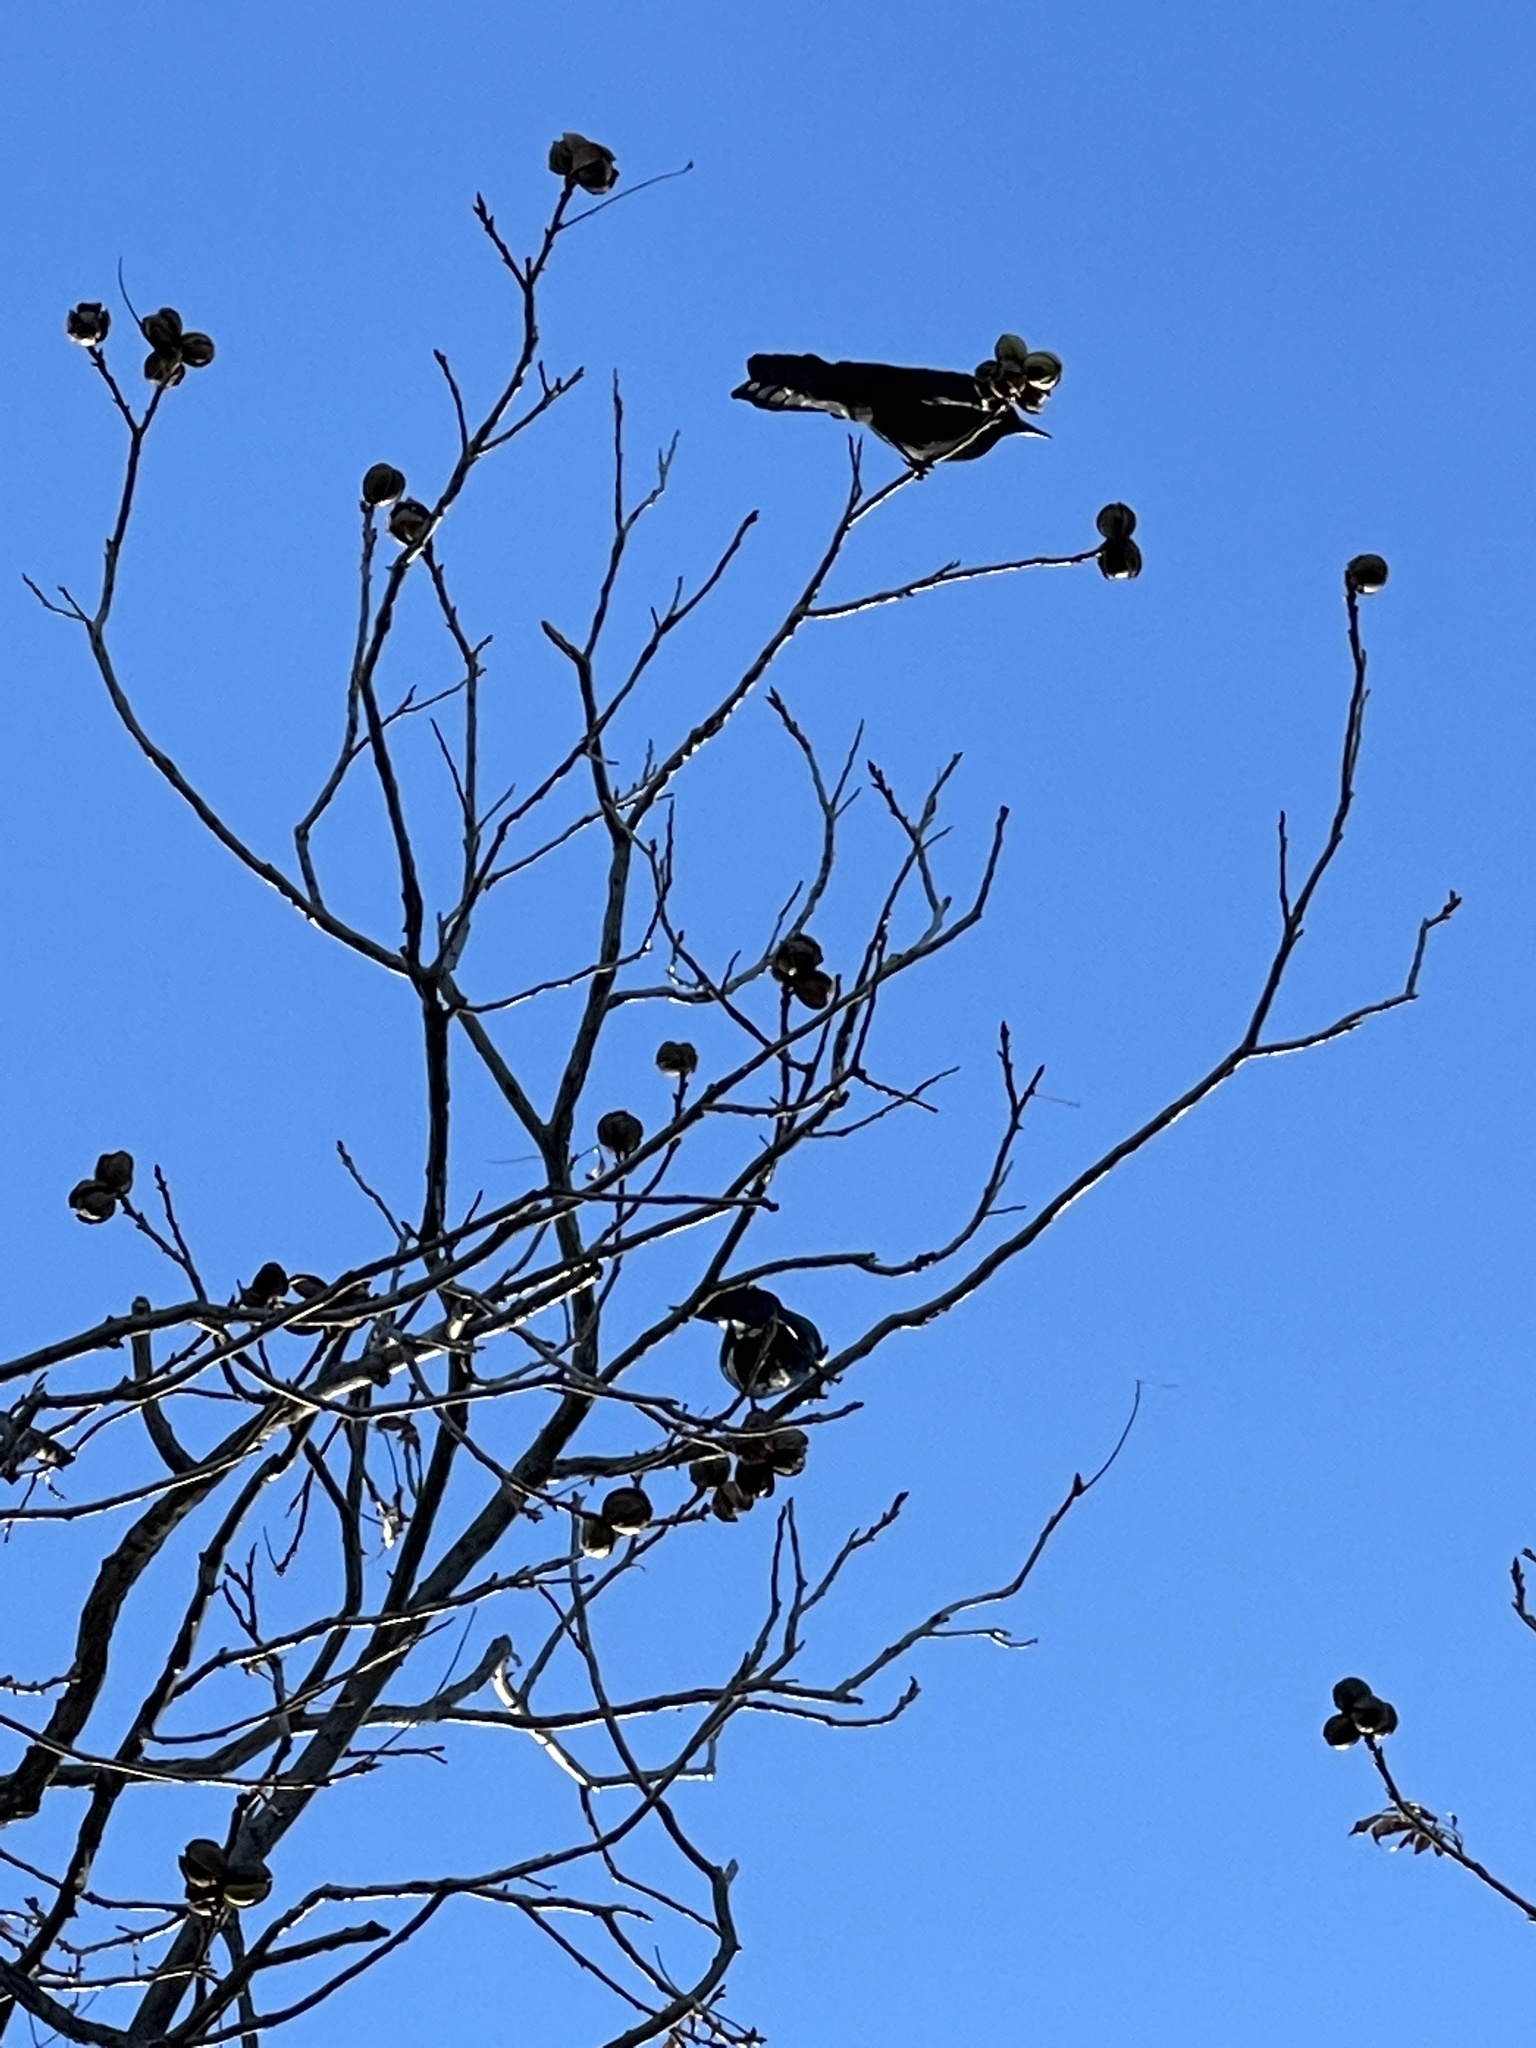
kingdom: Animalia
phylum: Chordata
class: Aves
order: Passeriformes
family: Icteridae
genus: Quiscalus
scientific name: Quiscalus mexicanus
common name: Great-tailed grackle
